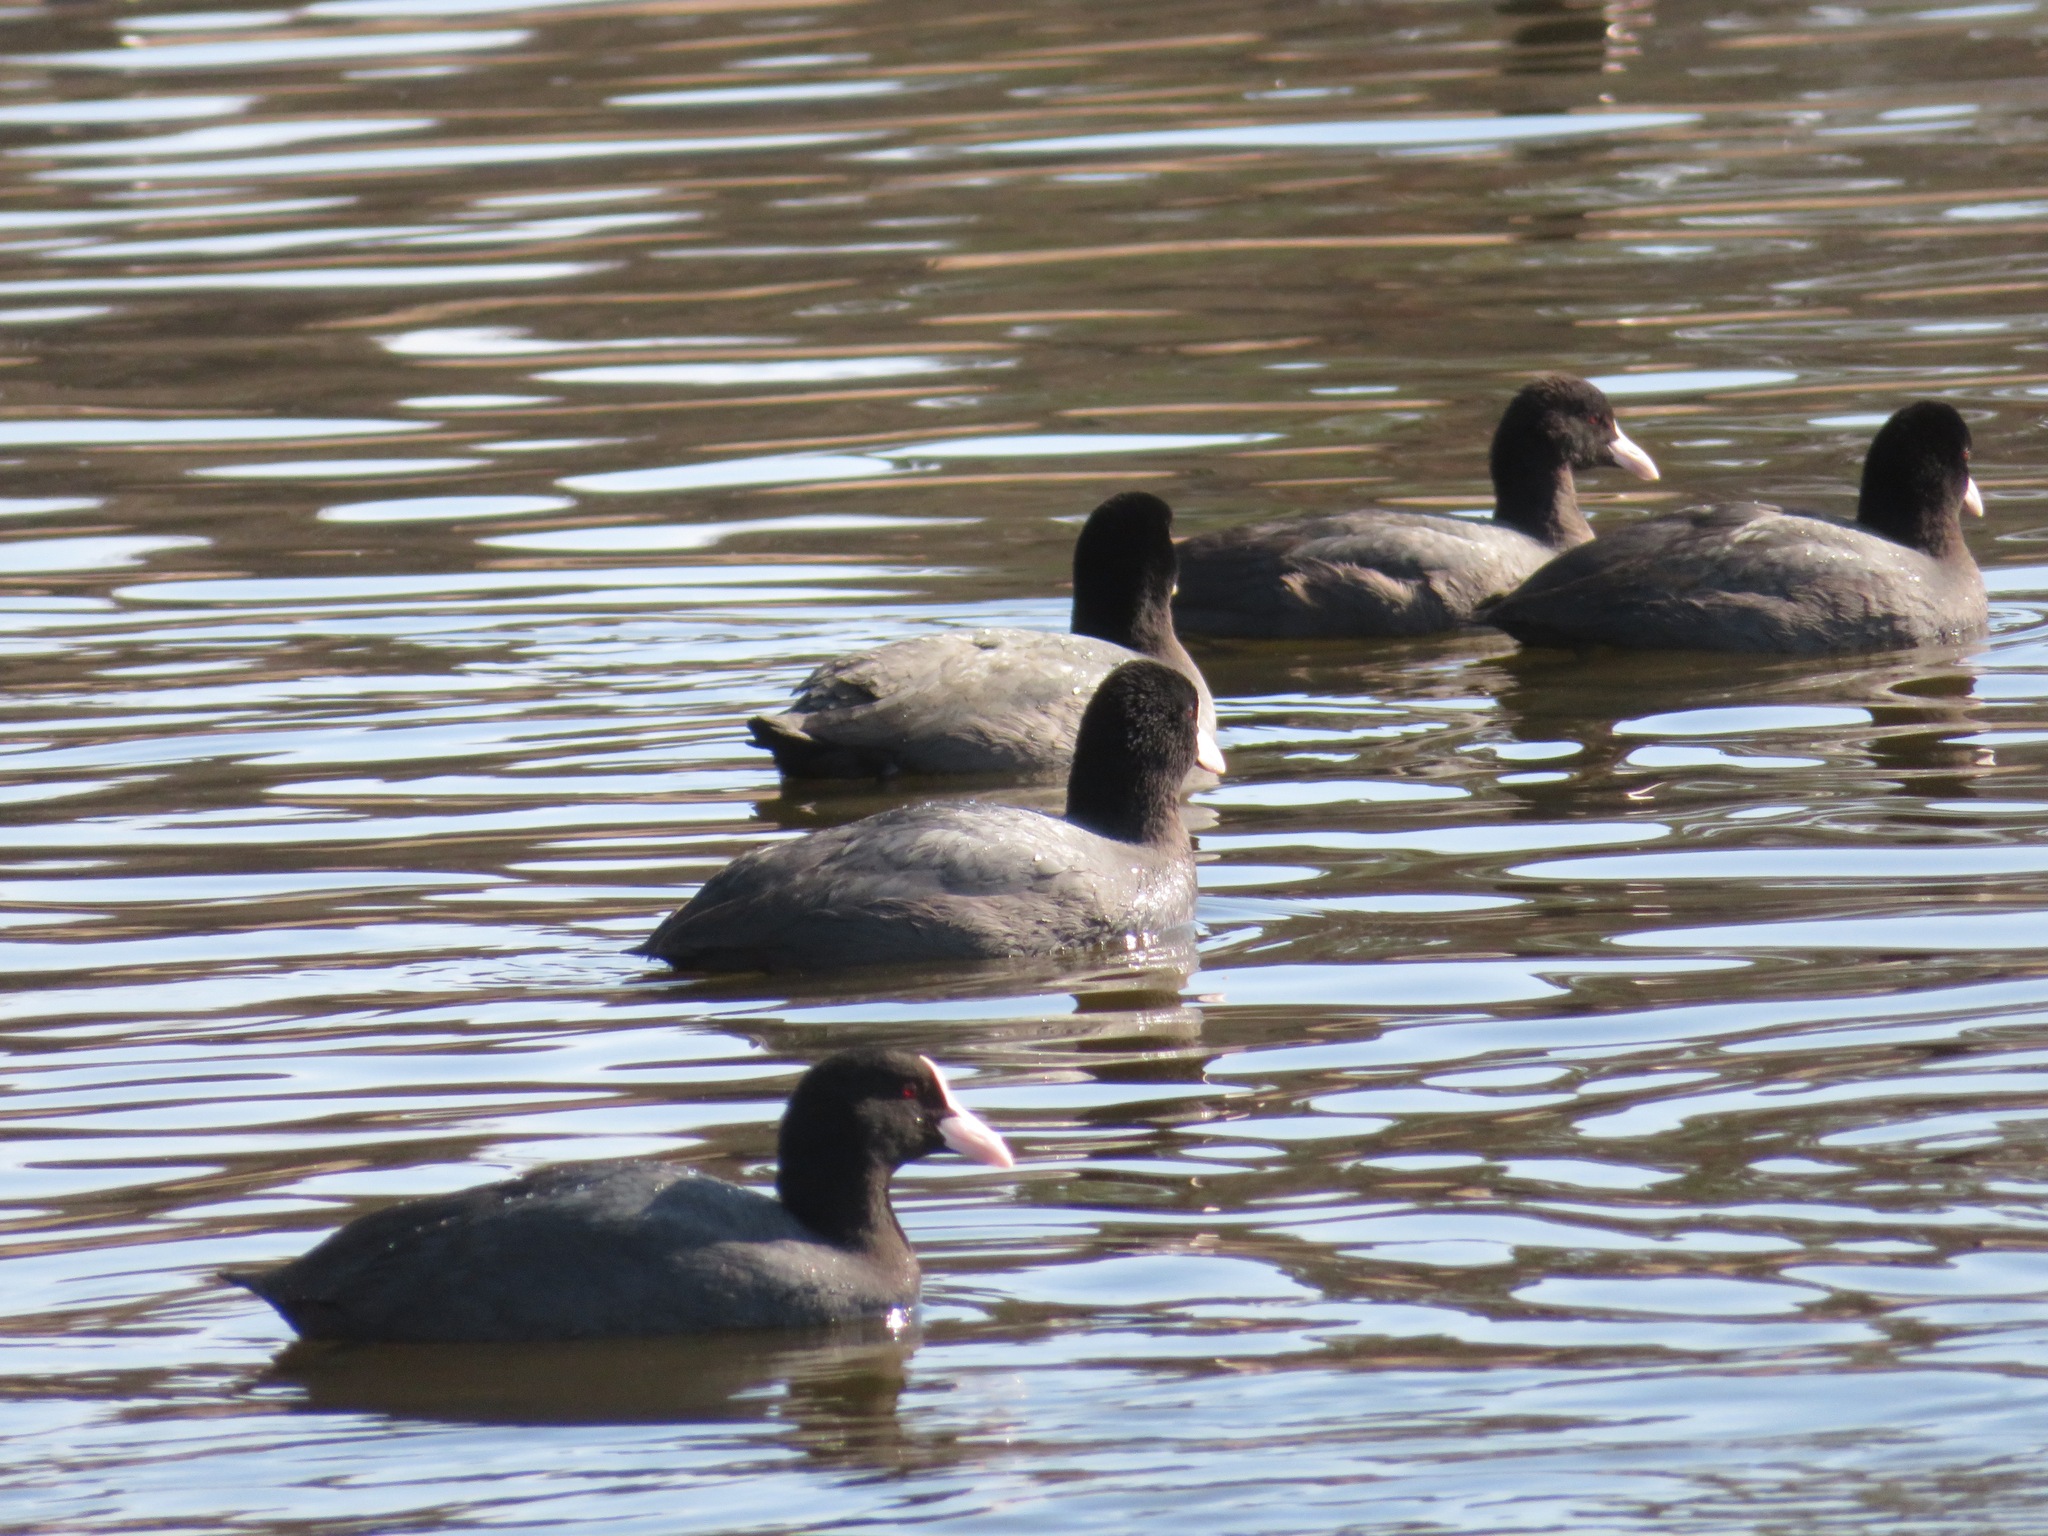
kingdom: Animalia
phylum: Chordata
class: Aves
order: Gruiformes
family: Rallidae
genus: Fulica
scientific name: Fulica atra
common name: Eurasian coot
